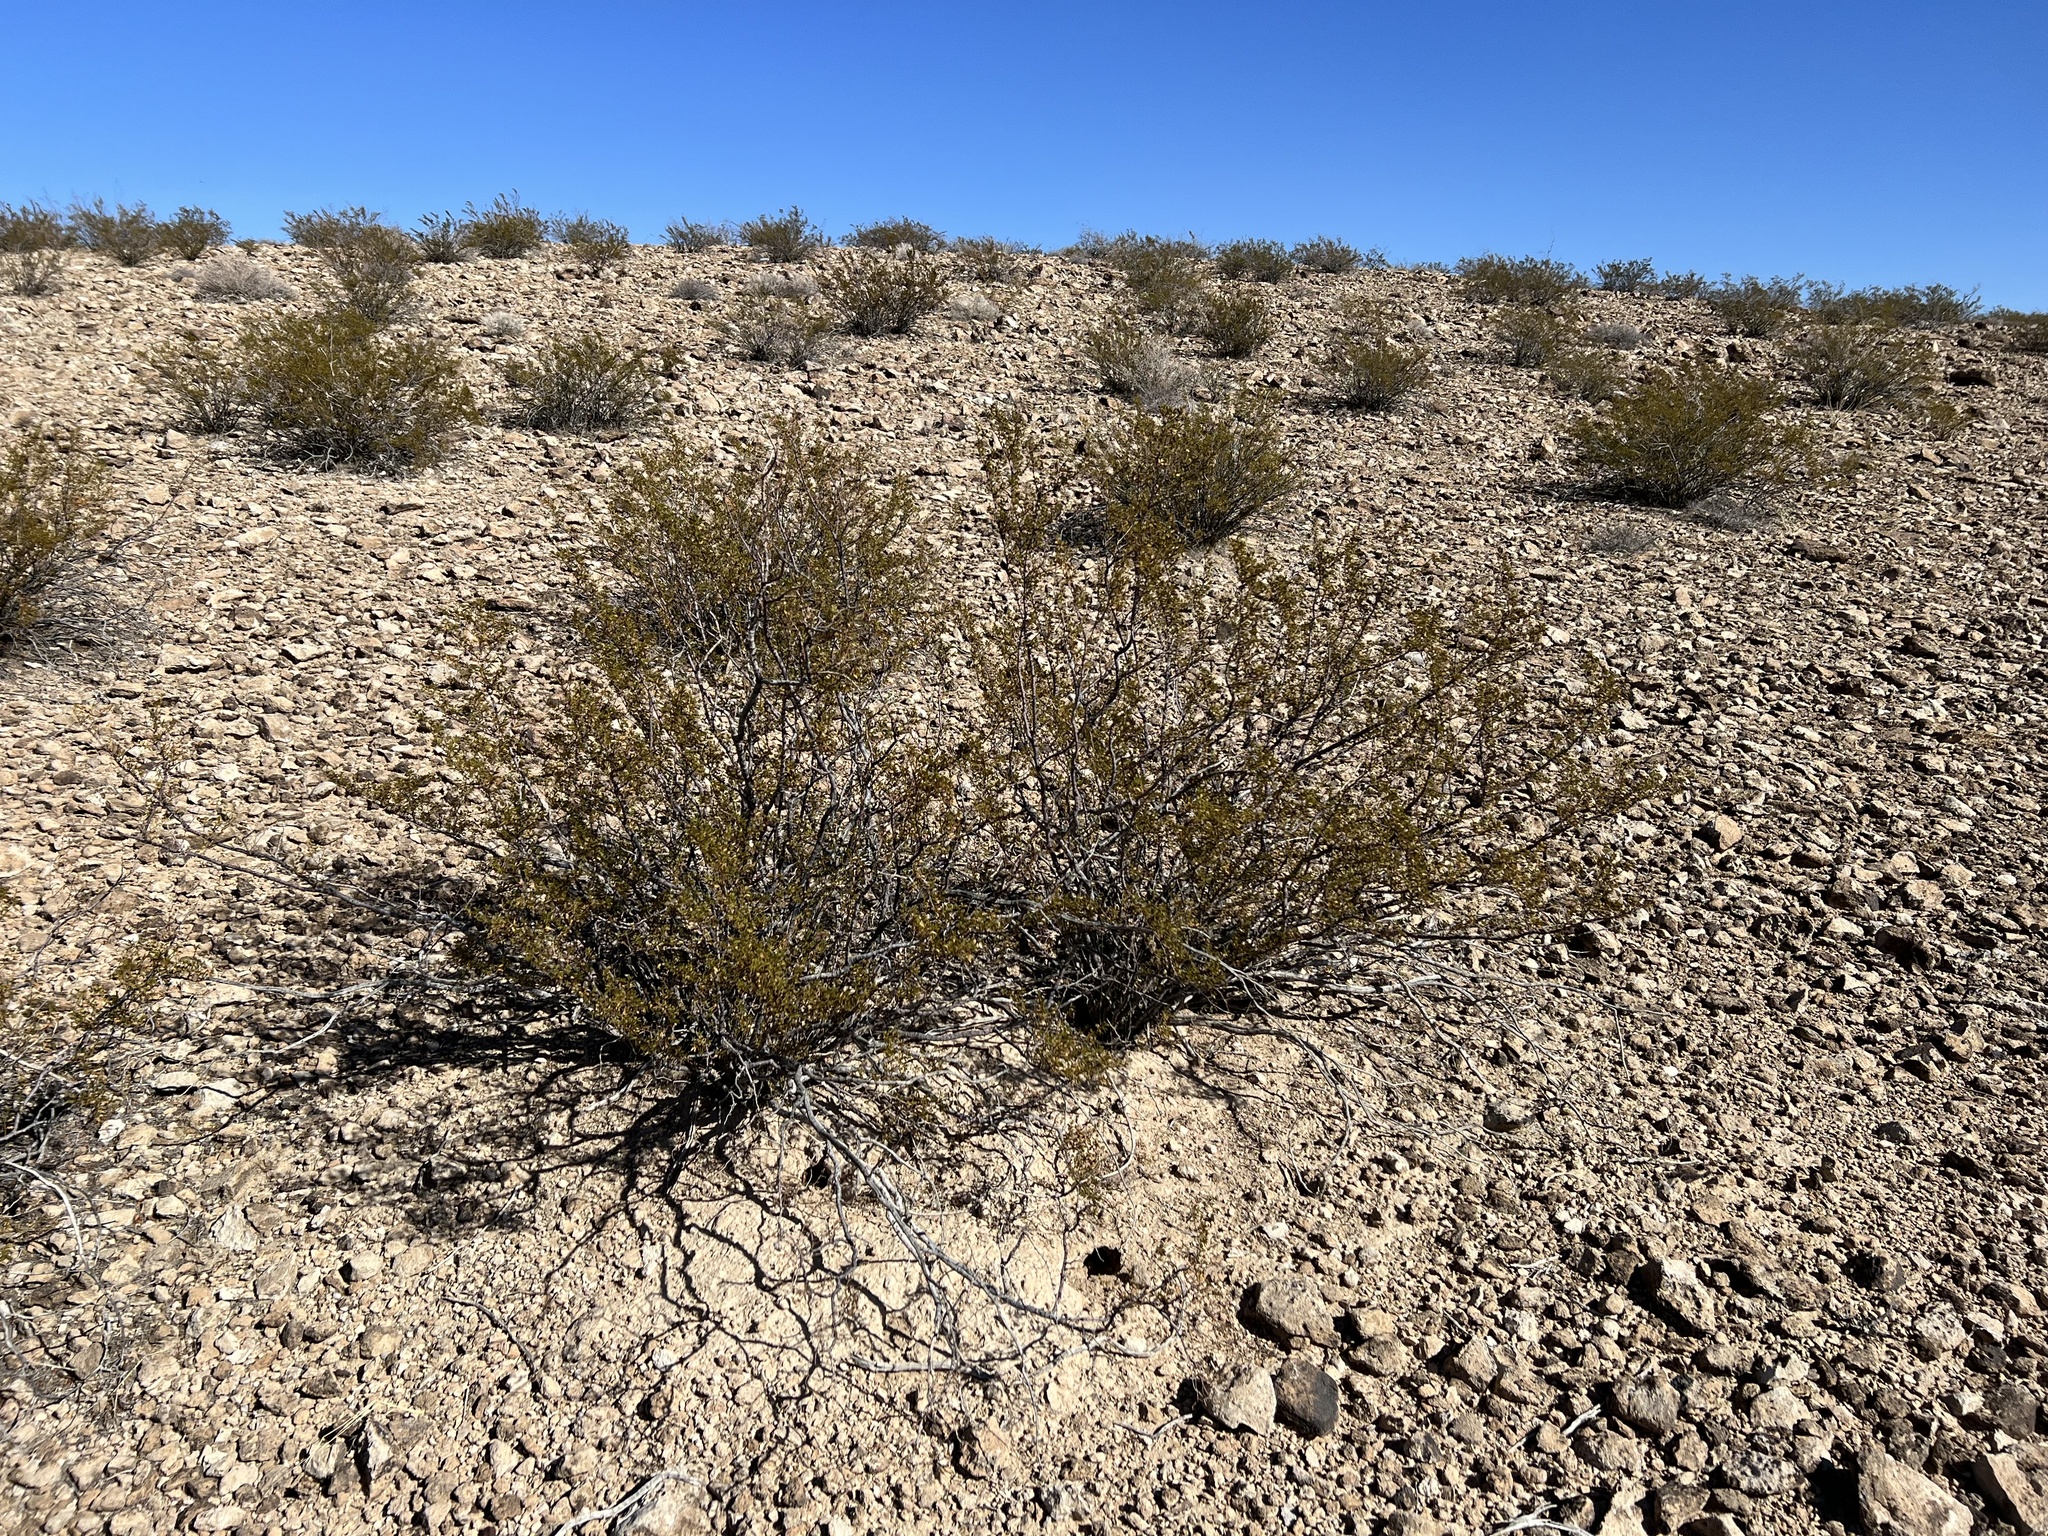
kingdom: Plantae
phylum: Tracheophyta
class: Magnoliopsida
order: Zygophyllales
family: Zygophyllaceae
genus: Larrea
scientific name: Larrea tridentata
